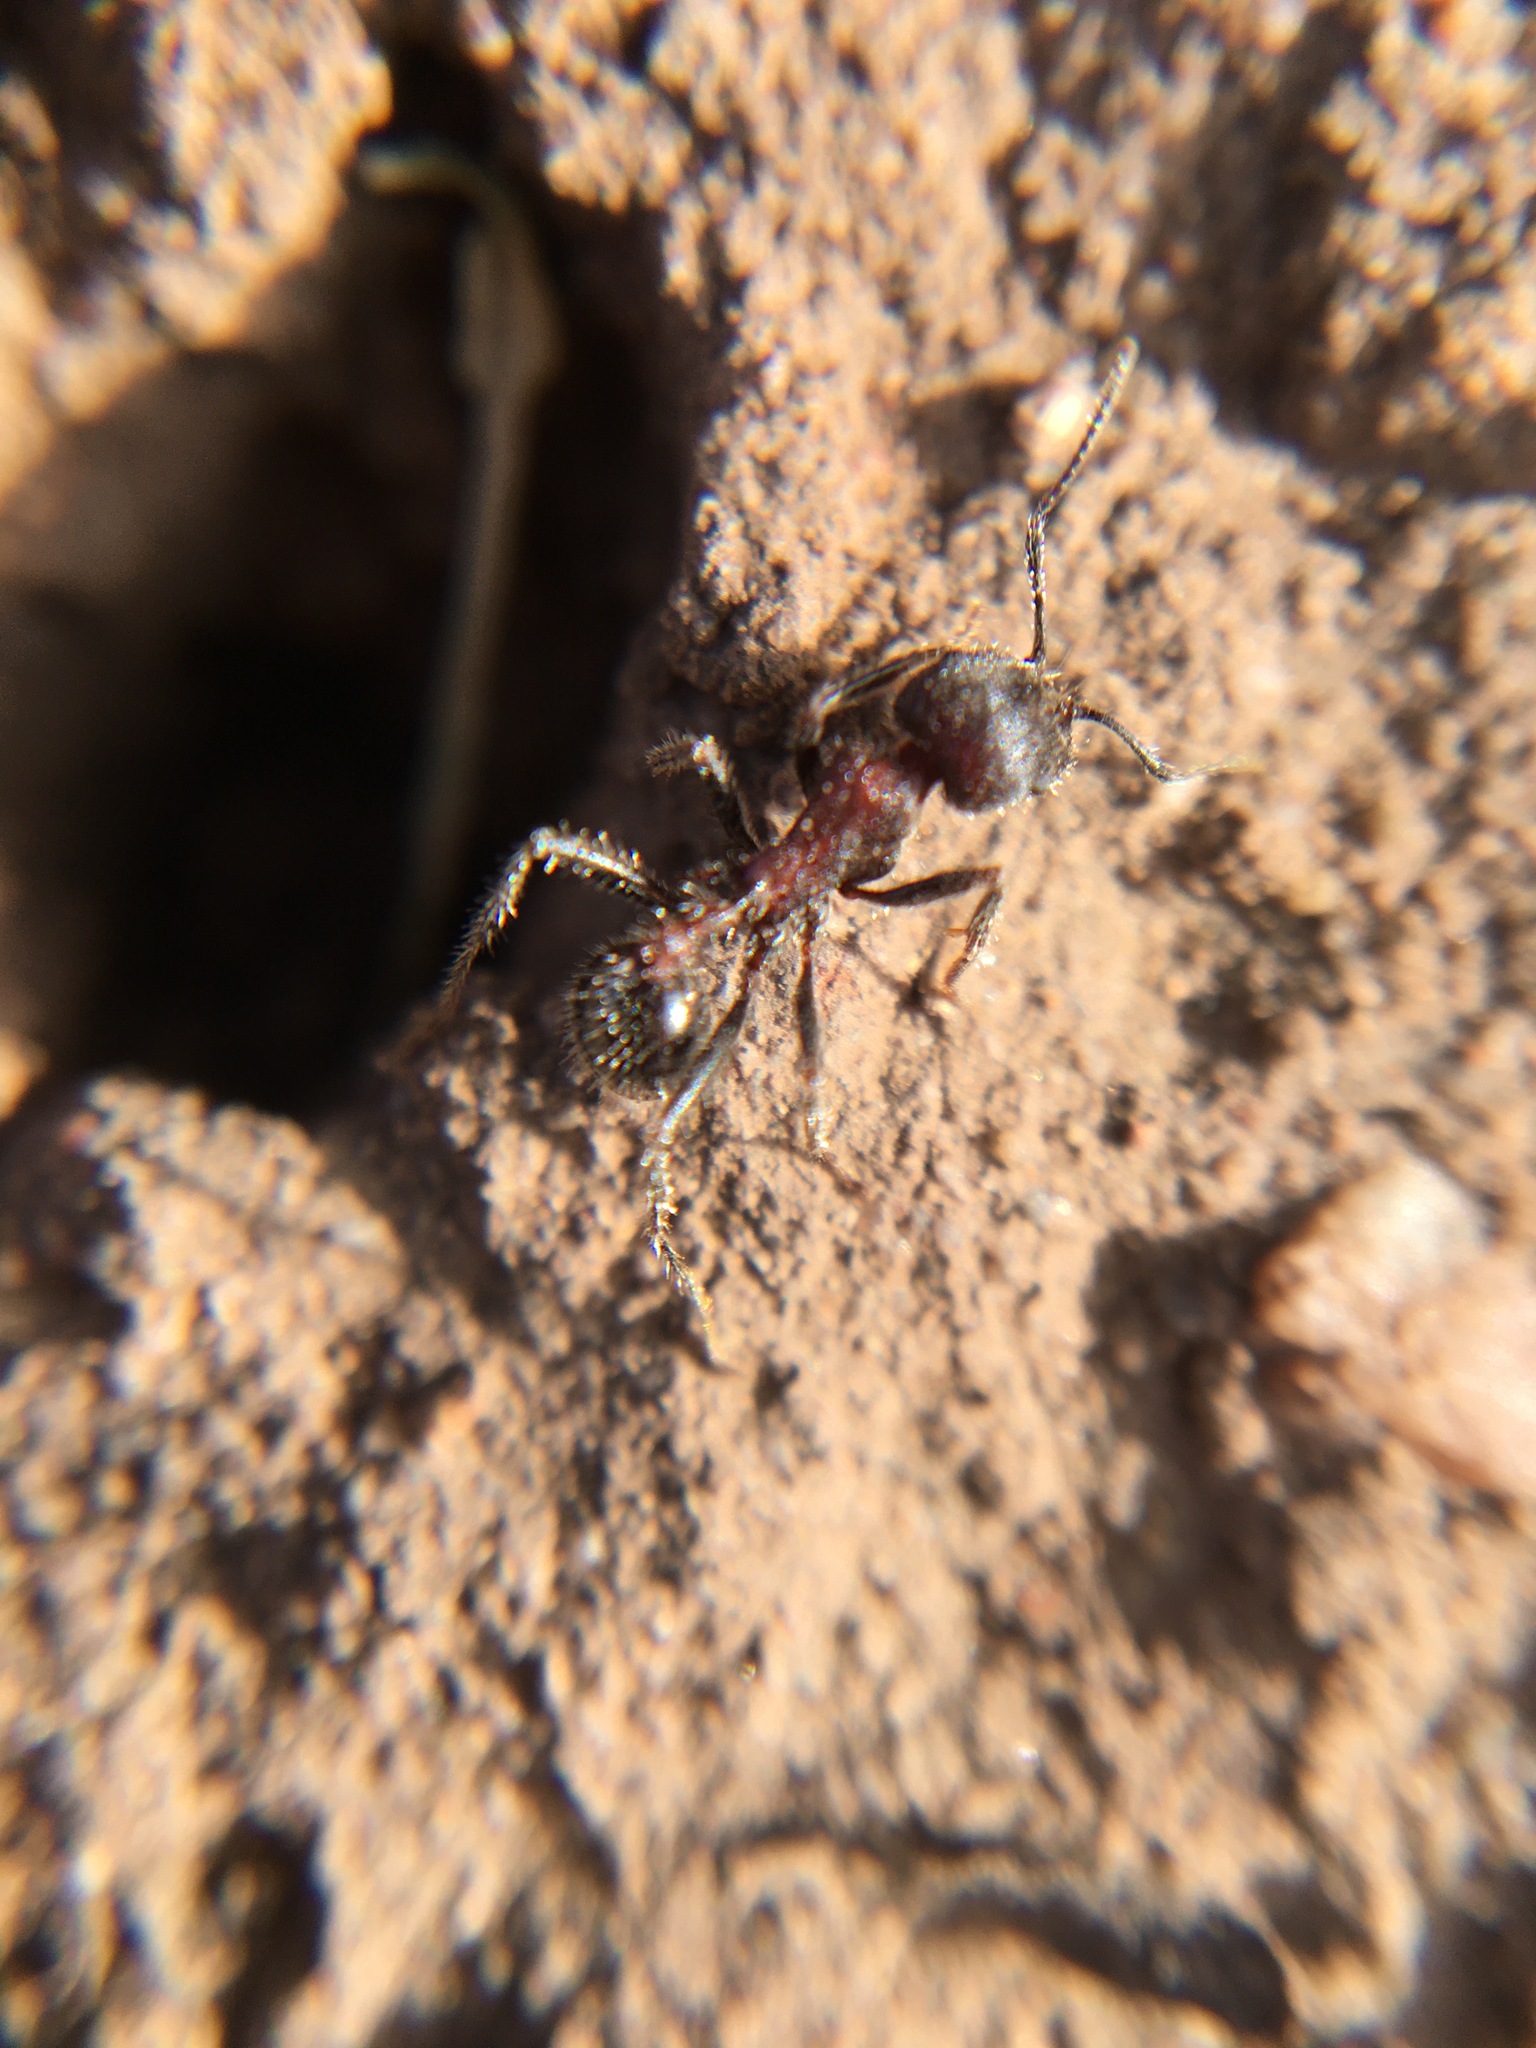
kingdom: Animalia
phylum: Arthropoda
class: Insecta
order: Hymenoptera
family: Formicidae
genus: Veromessor
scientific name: Veromessor andrei
